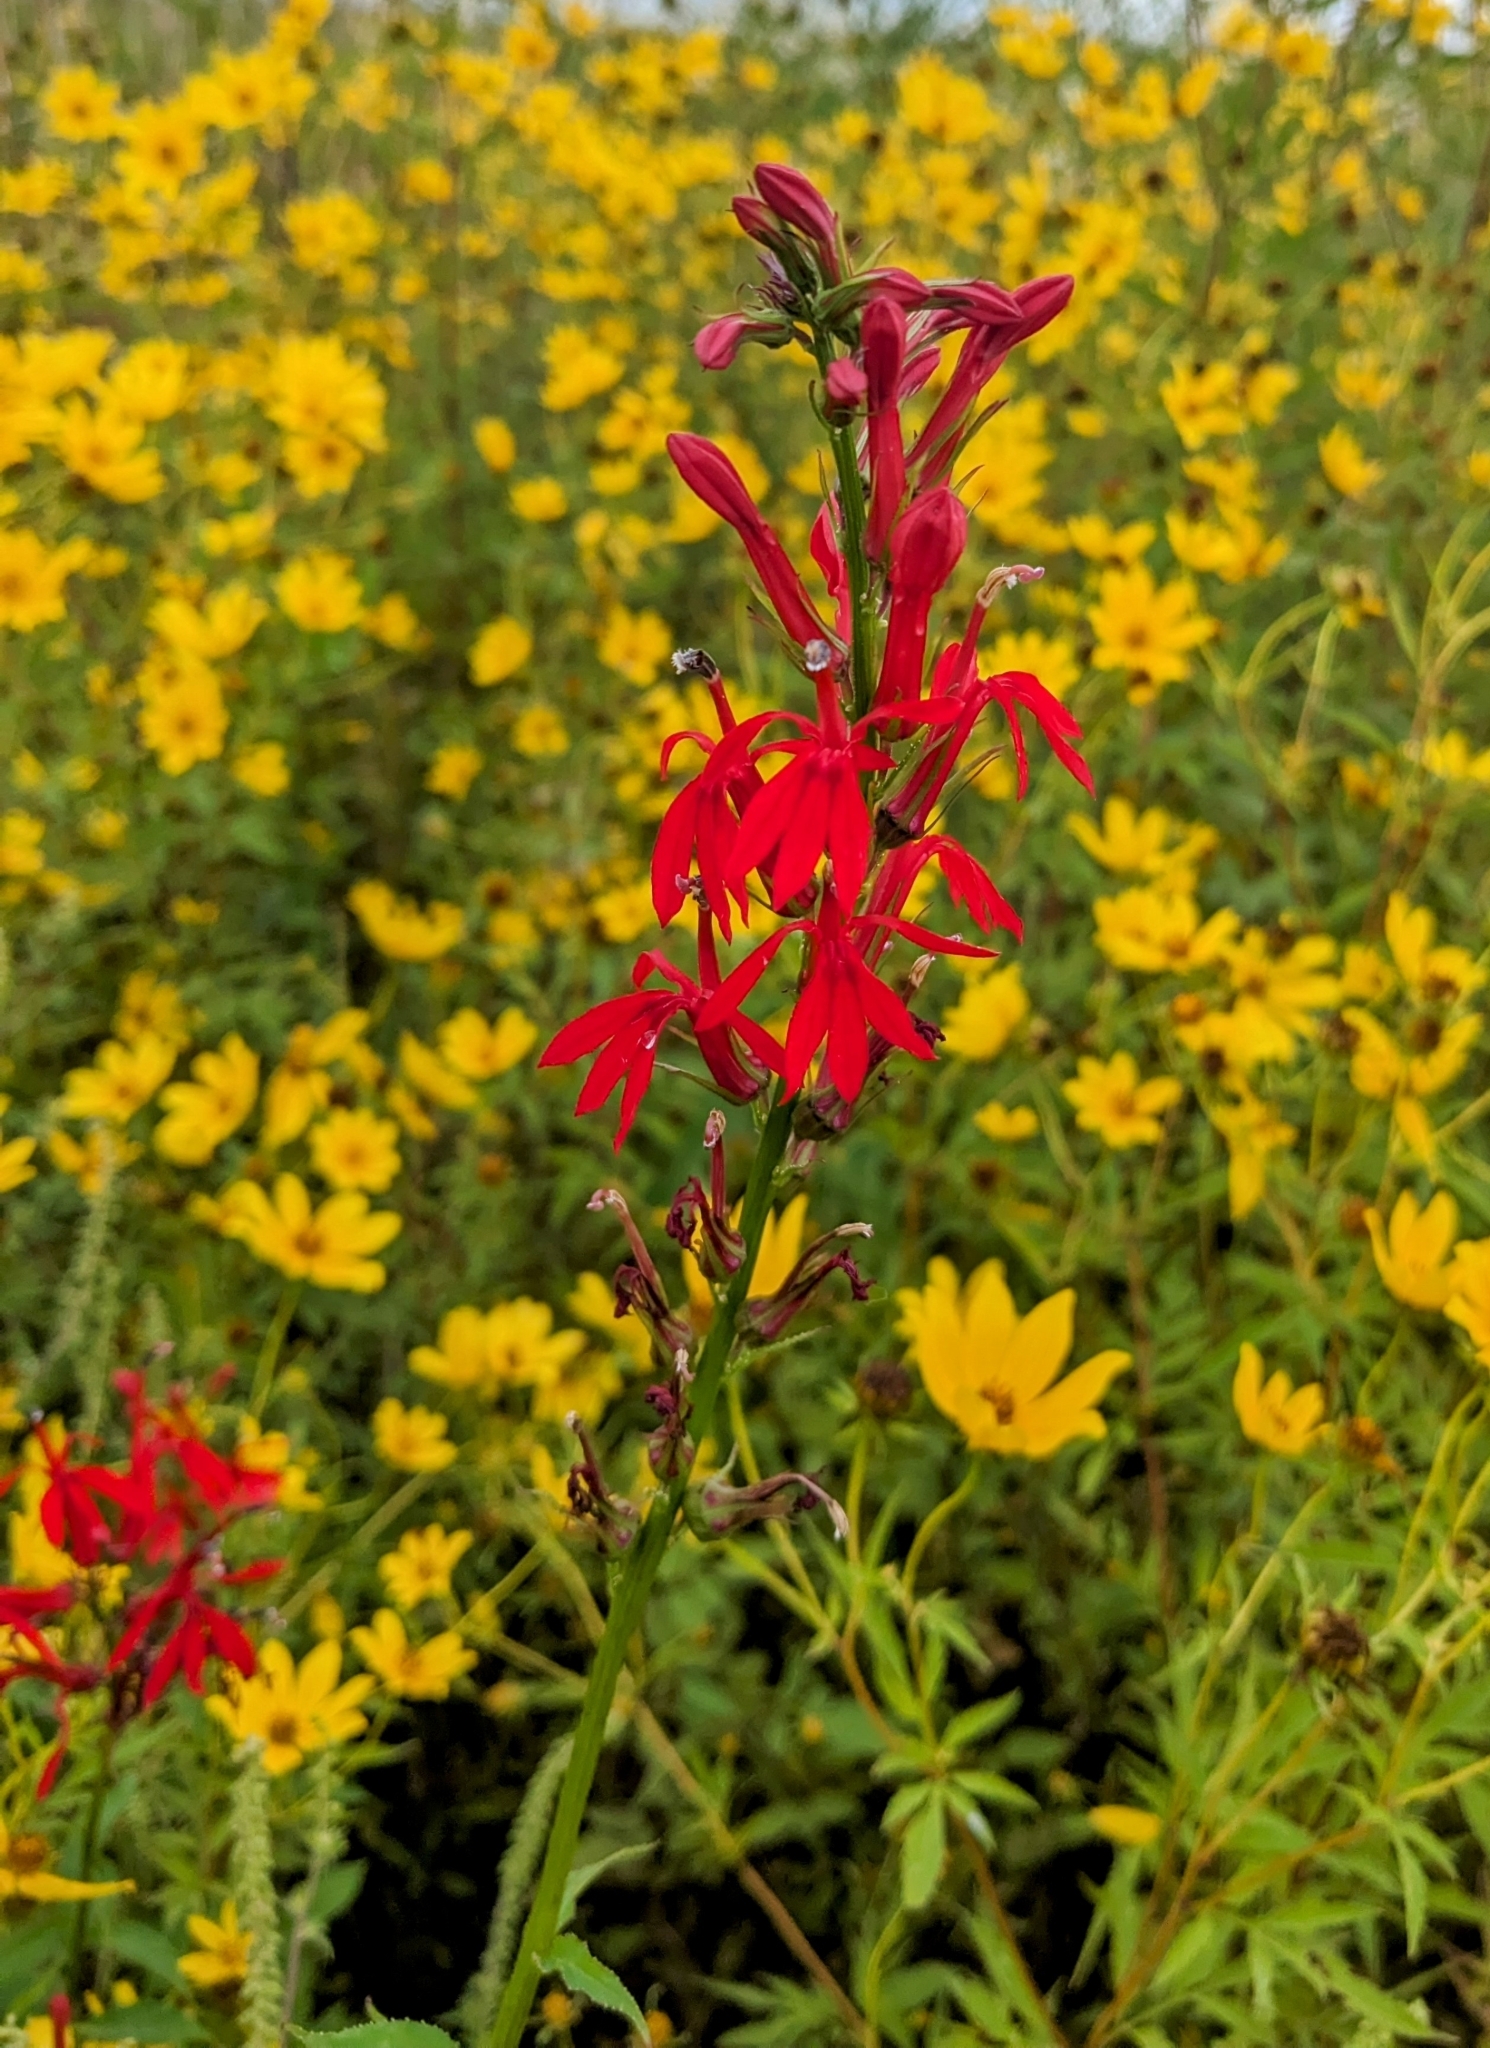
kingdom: Plantae
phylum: Tracheophyta
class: Magnoliopsida
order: Asterales
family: Campanulaceae
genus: Lobelia
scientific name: Lobelia cardinalis
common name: Cardinal flower
